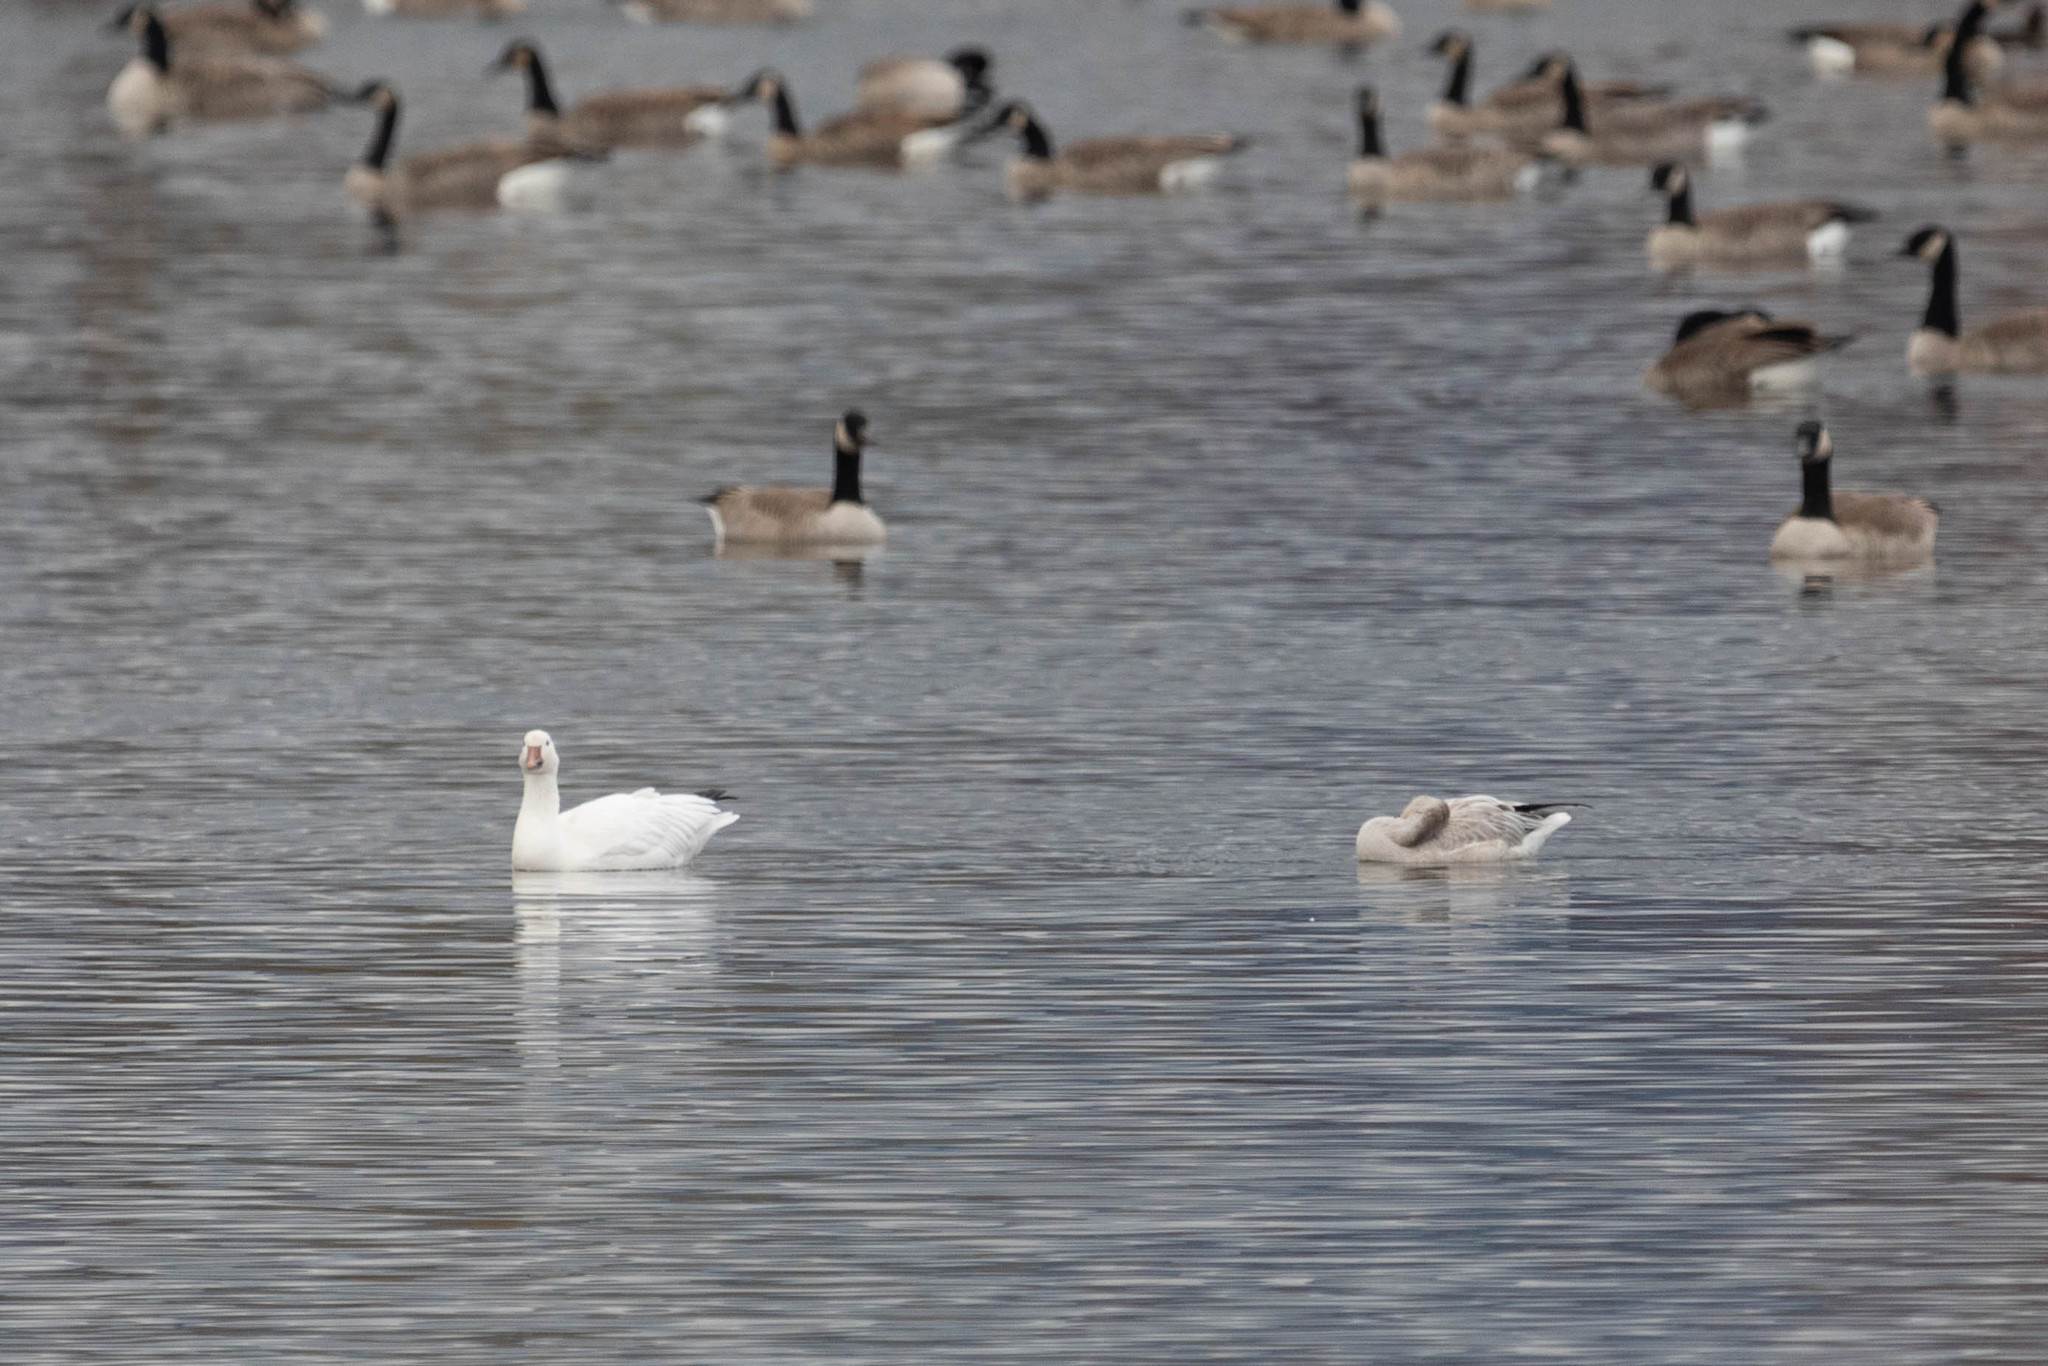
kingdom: Animalia
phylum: Chordata
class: Aves
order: Anseriformes
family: Anatidae
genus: Anser
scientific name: Anser caerulescens
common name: Snow goose
